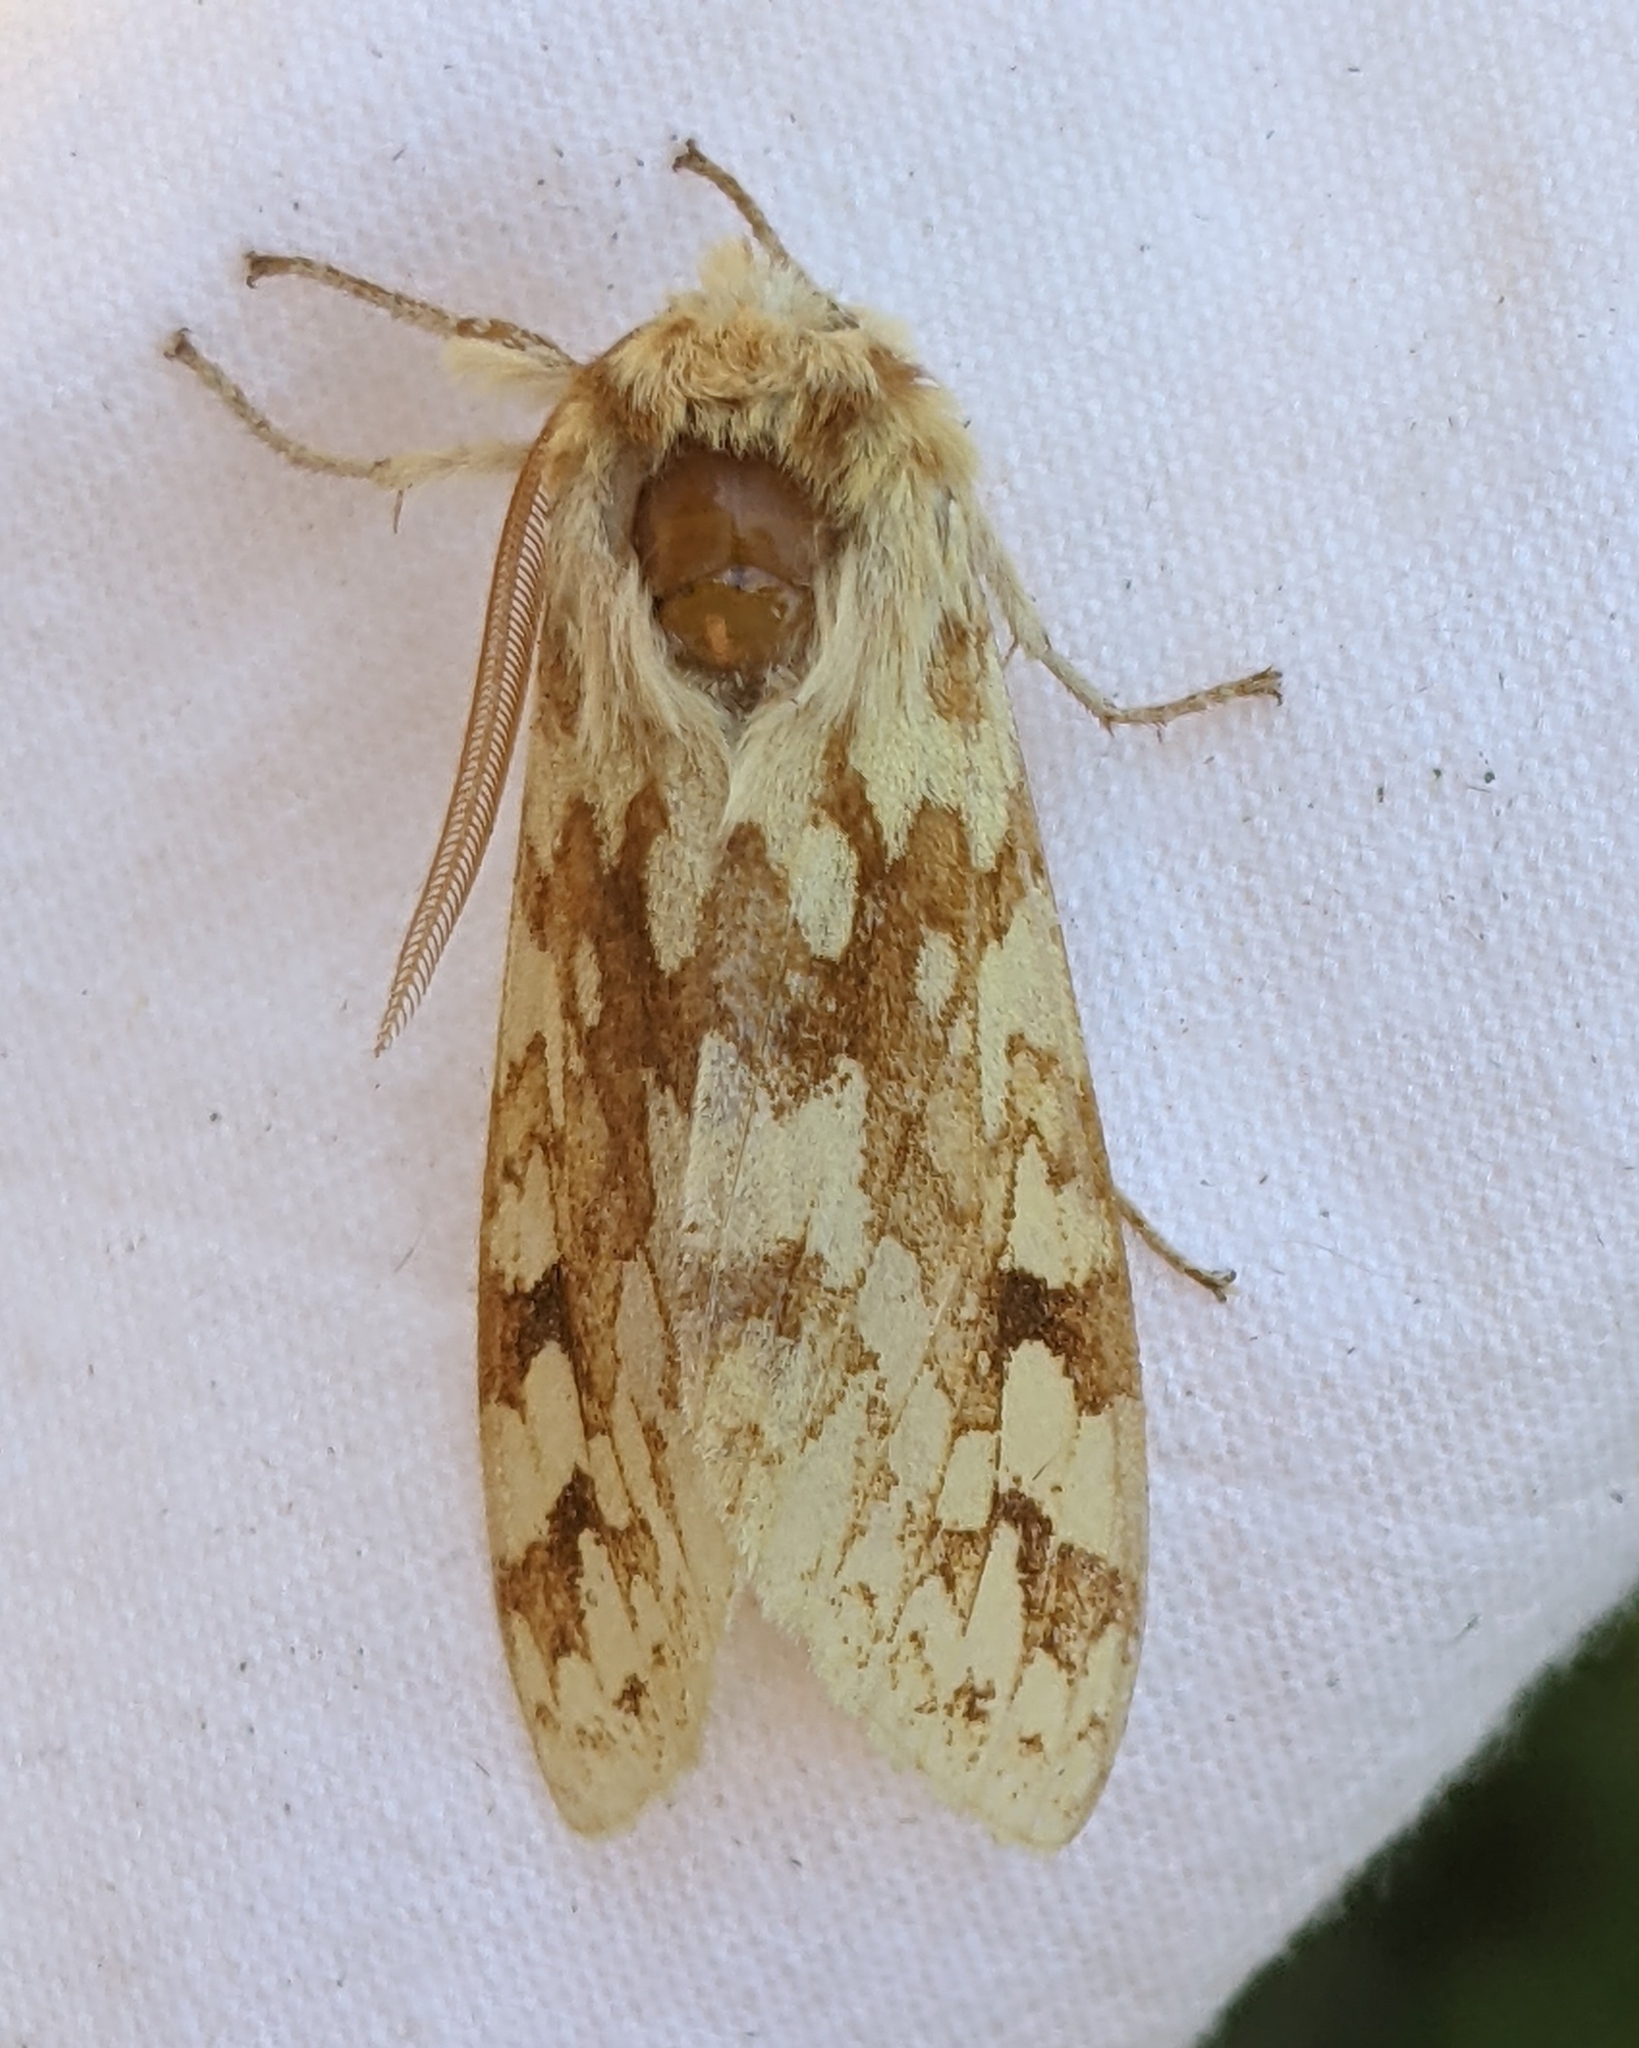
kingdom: Animalia
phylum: Arthropoda
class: Insecta
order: Lepidoptera
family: Erebidae
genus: Lophocampa
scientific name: Lophocampa maculata
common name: Spotted tussock moth
